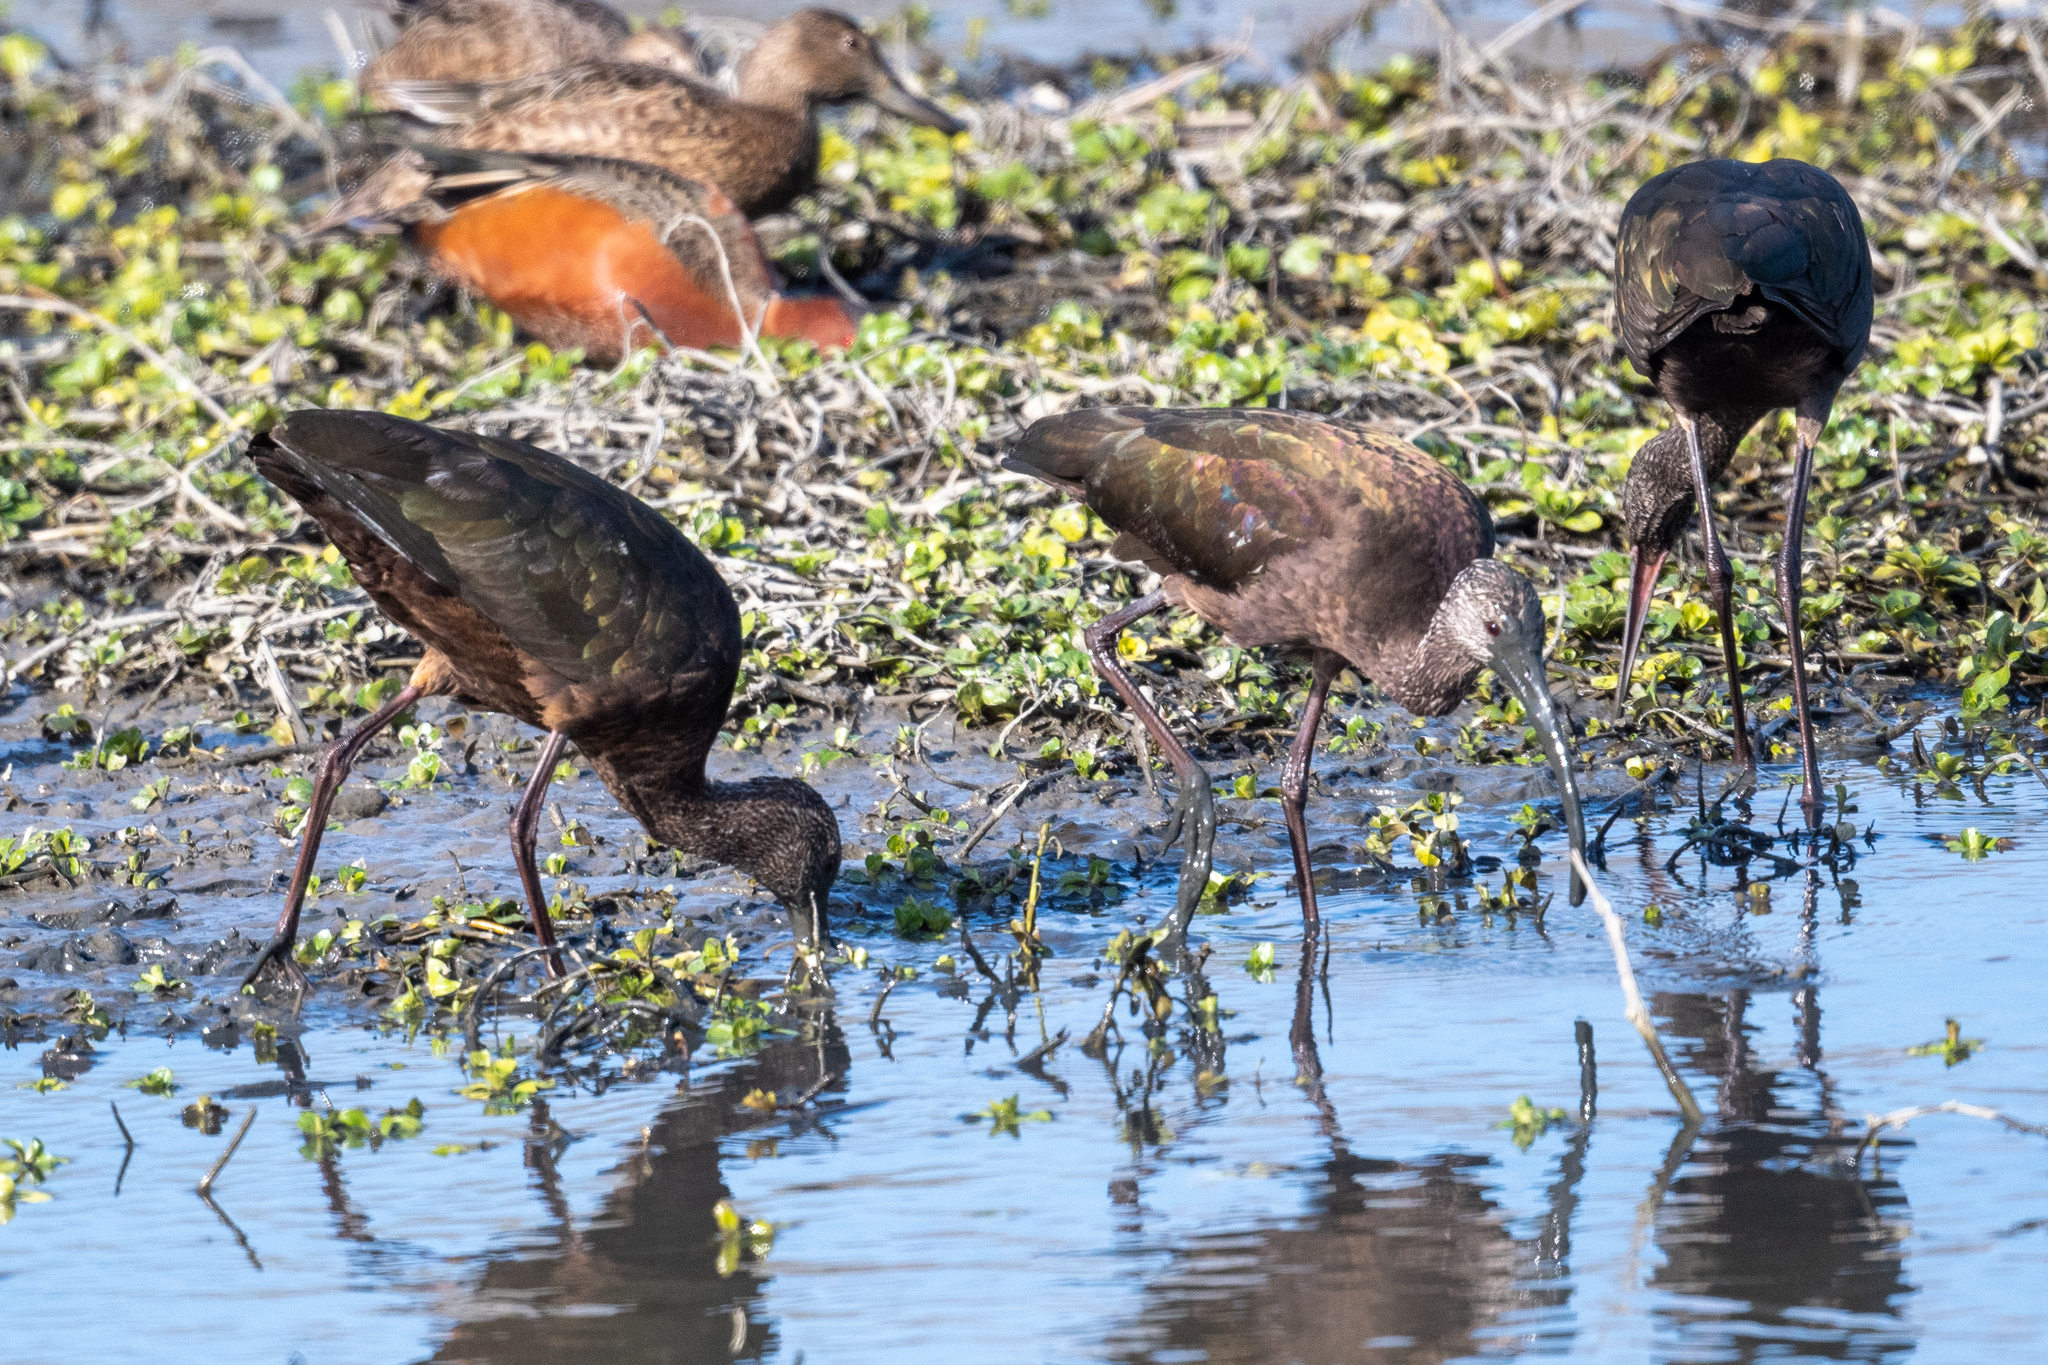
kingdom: Animalia
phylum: Chordata
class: Aves
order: Pelecaniformes
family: Threskiornithidae
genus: Plegadis
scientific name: Plegadis chihi
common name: White-faced ibis
